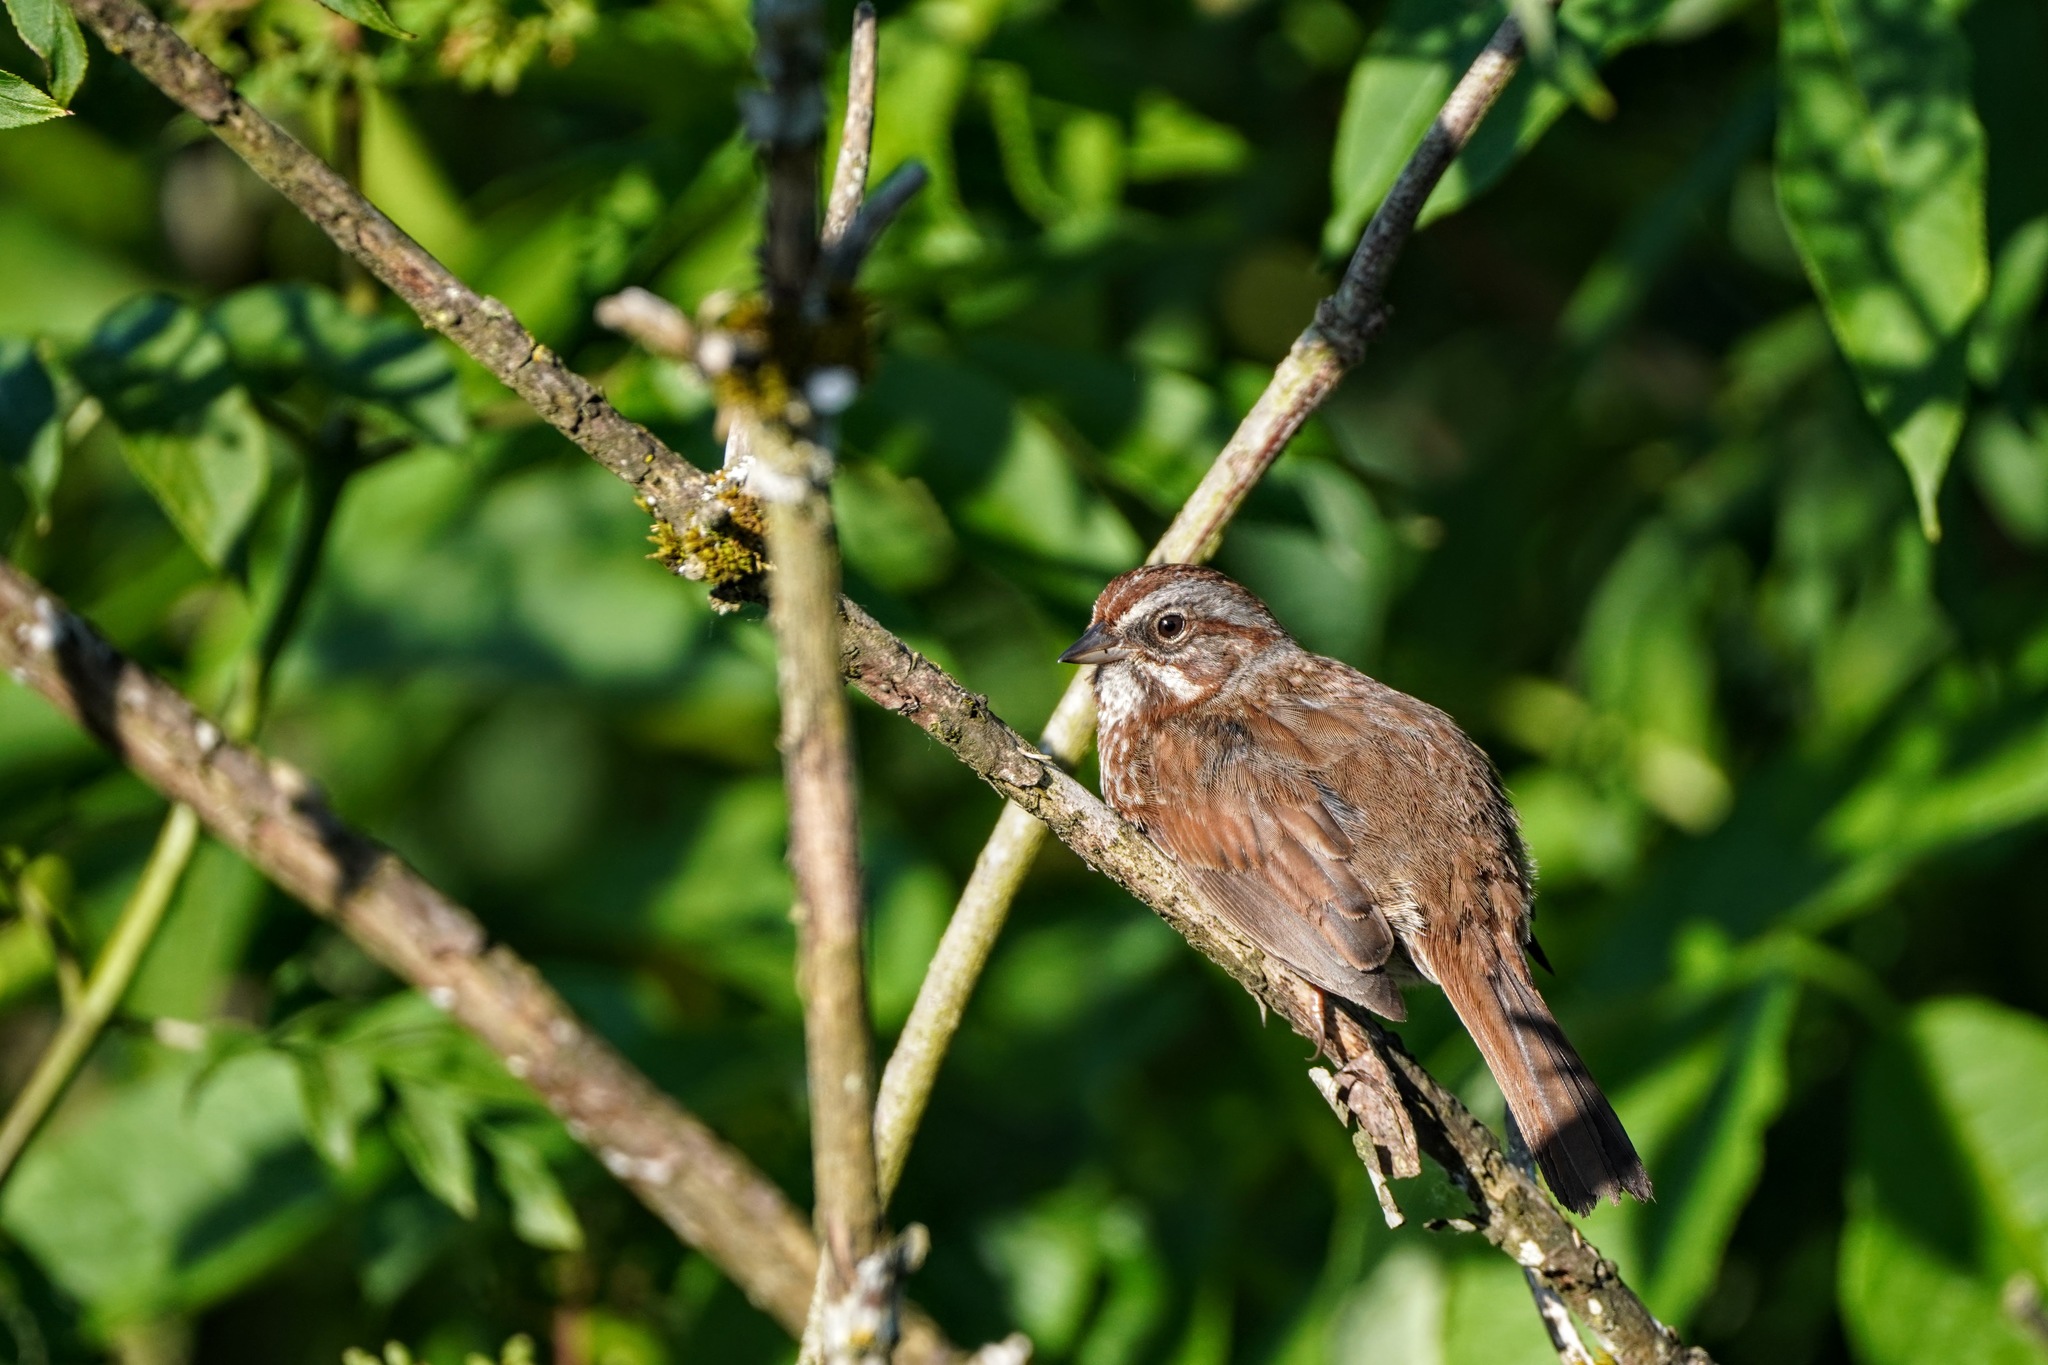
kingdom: Animalia
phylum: Chordata
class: Aves
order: Passeriformes
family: Passerellidae
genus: Melospiza
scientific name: Melospiza melodia
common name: Song sparrow
